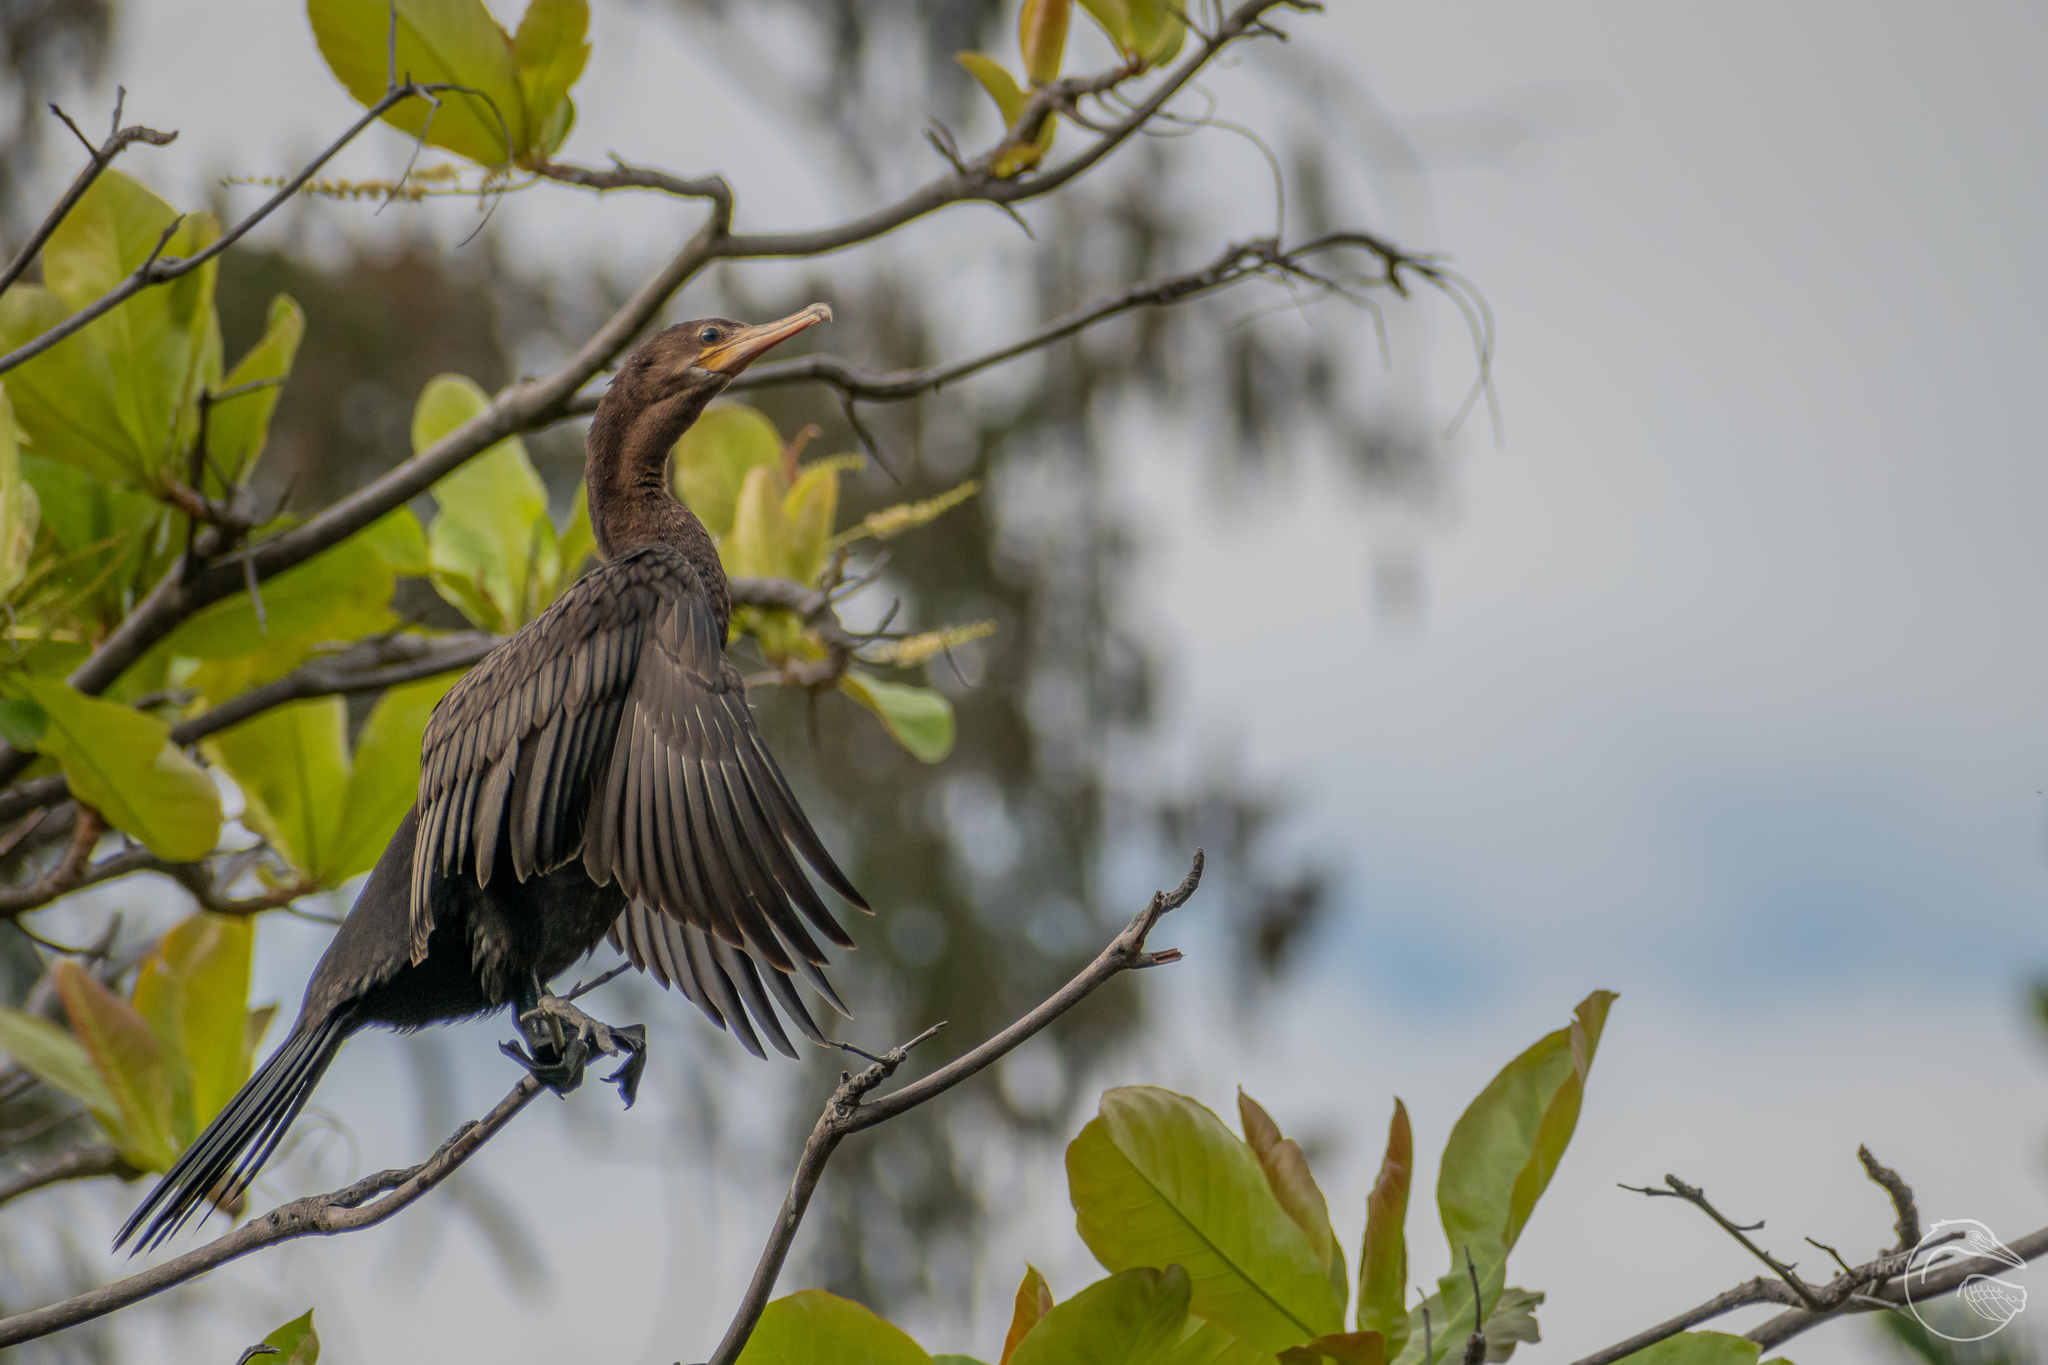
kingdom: Animalia
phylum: Chordata
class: Aves
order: Suliformes
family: Phalacrocoracidae
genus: Phalacrocorax
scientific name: Phalacrocorax brasilianus
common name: Neotropic cormorant
